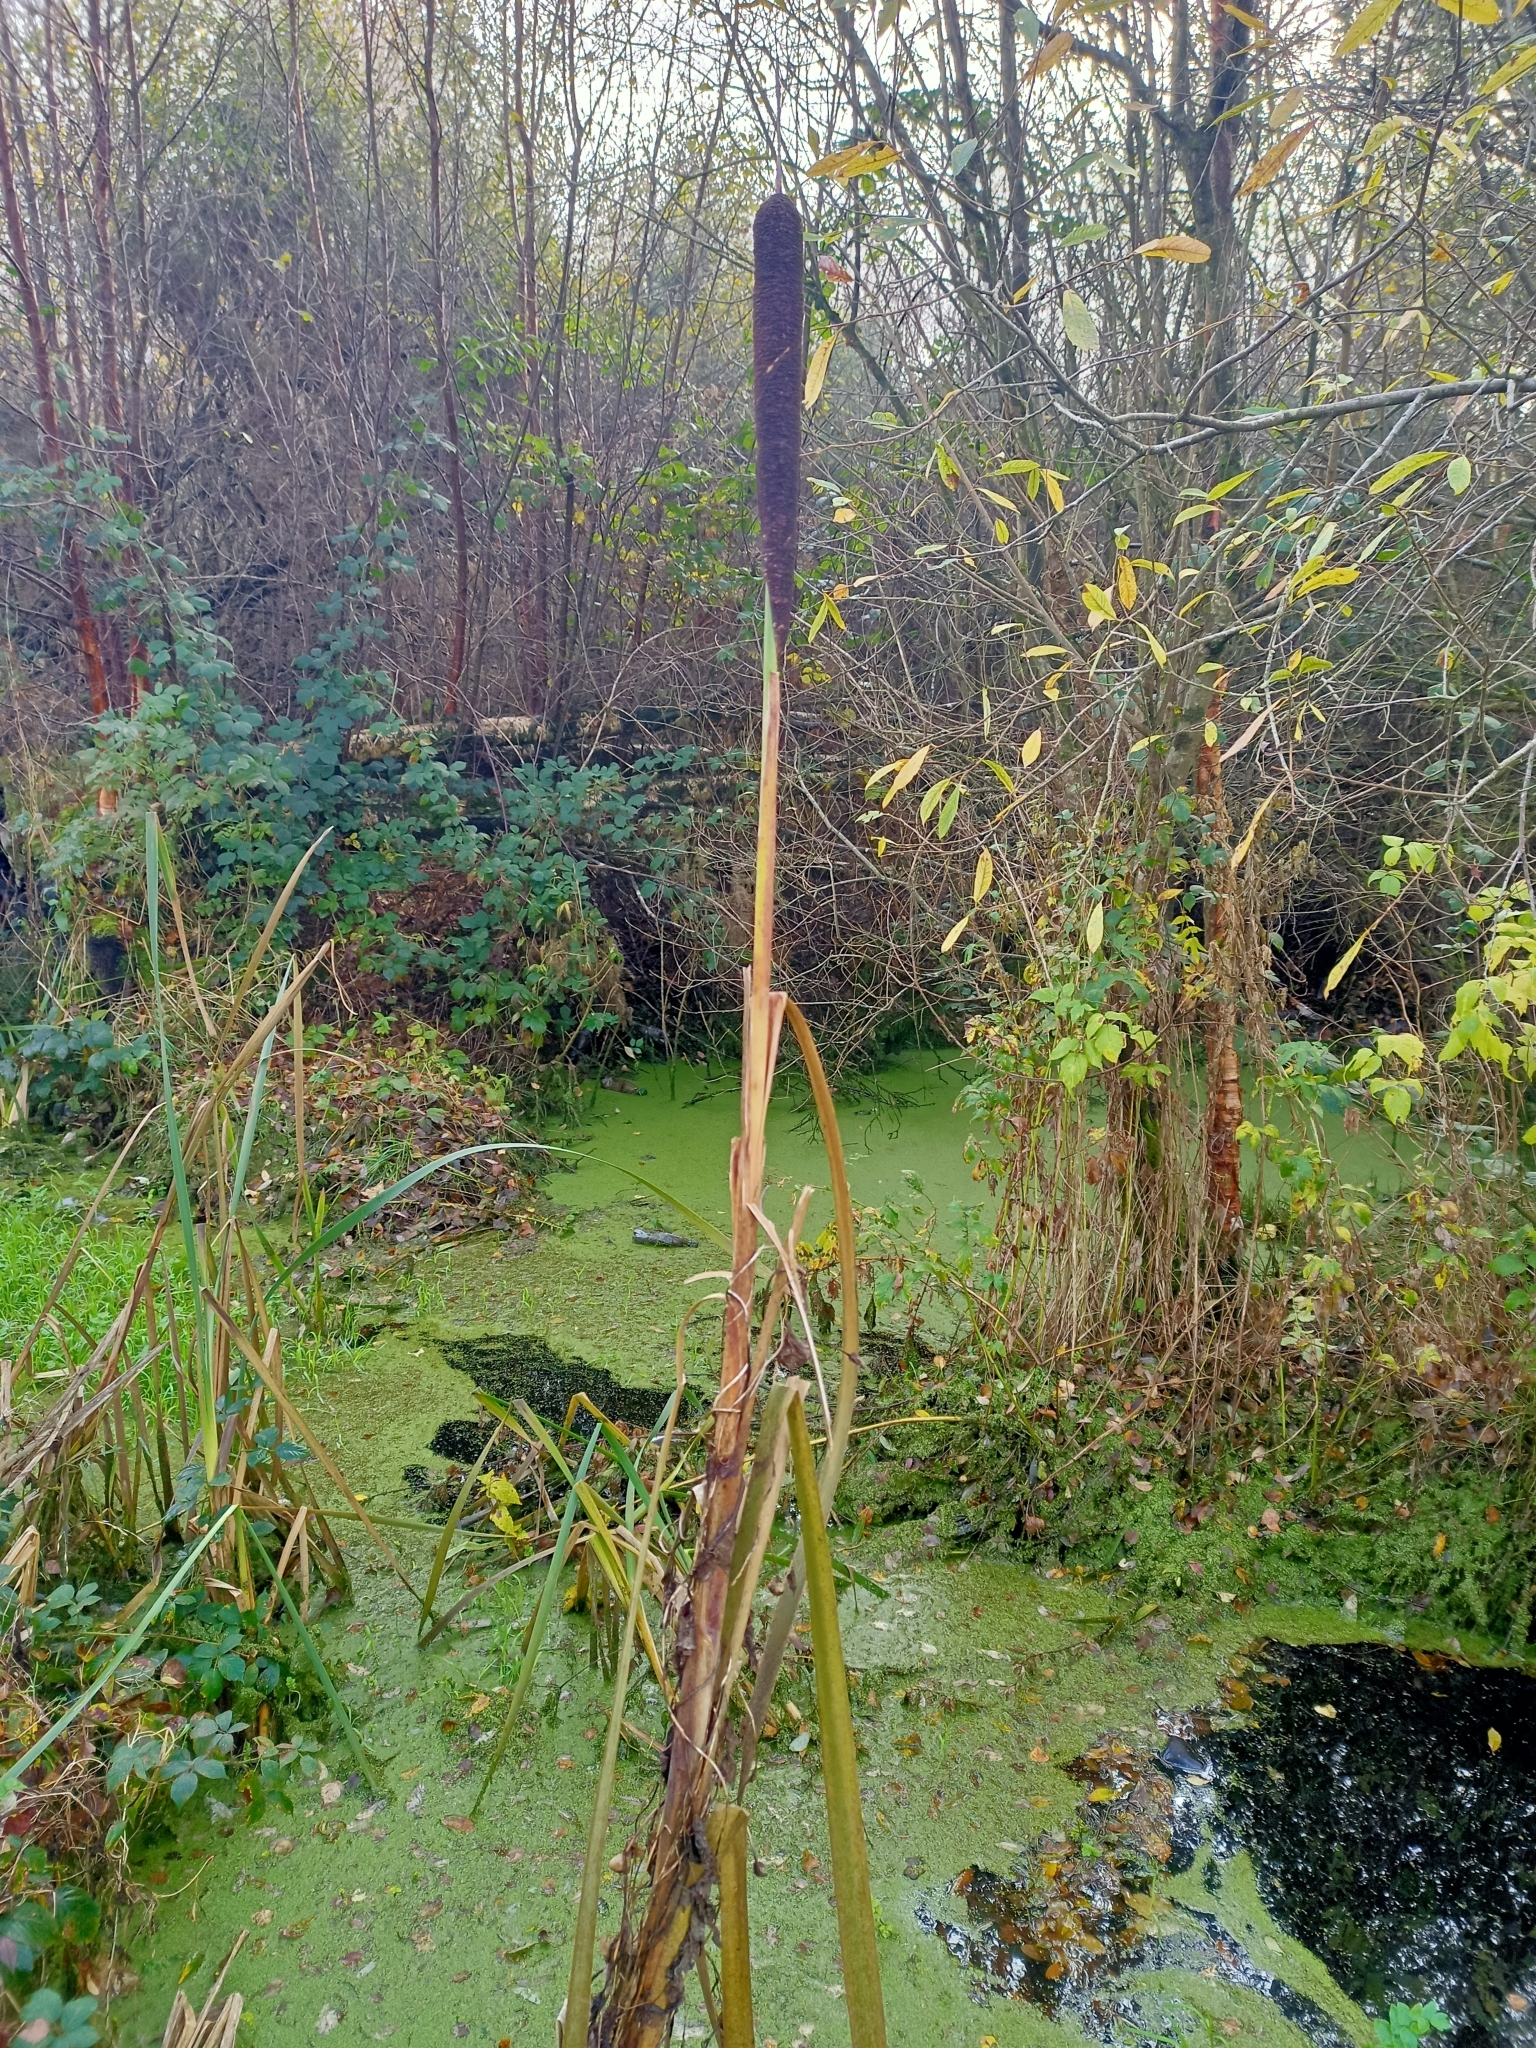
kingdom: Plantae
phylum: Tracheophyta
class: Liliopsida
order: Poales
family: Typhaceae
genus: Typha
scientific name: Typha latifolia
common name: Broadleaf cattail
